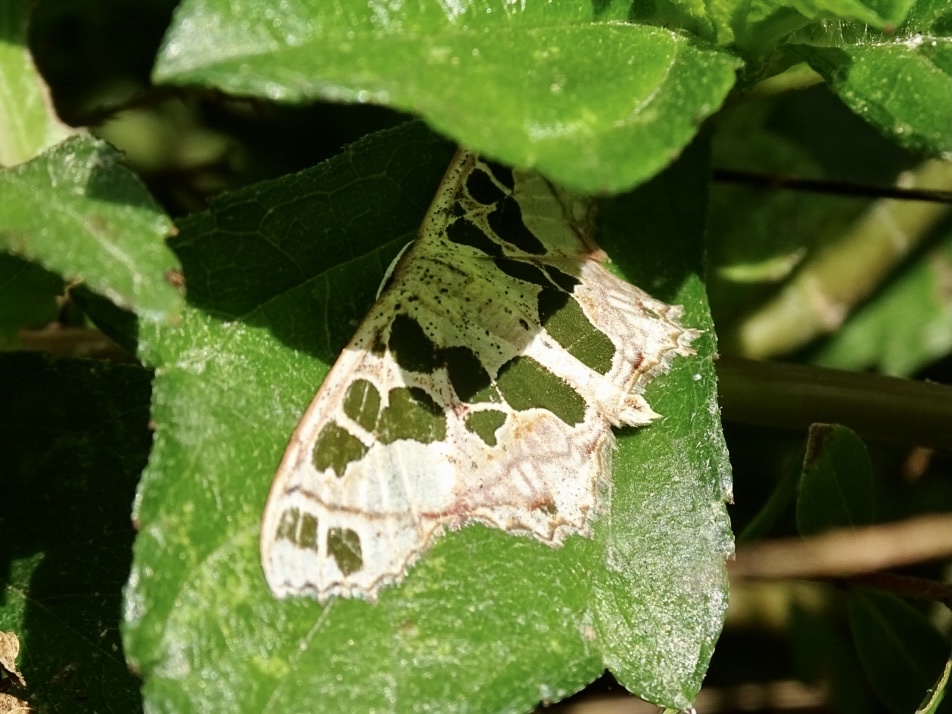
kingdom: Animalia
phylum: Arthropoda
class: Insecta
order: Lepidoptera
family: Geometridae
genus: Scopula
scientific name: Scopula divisaria
